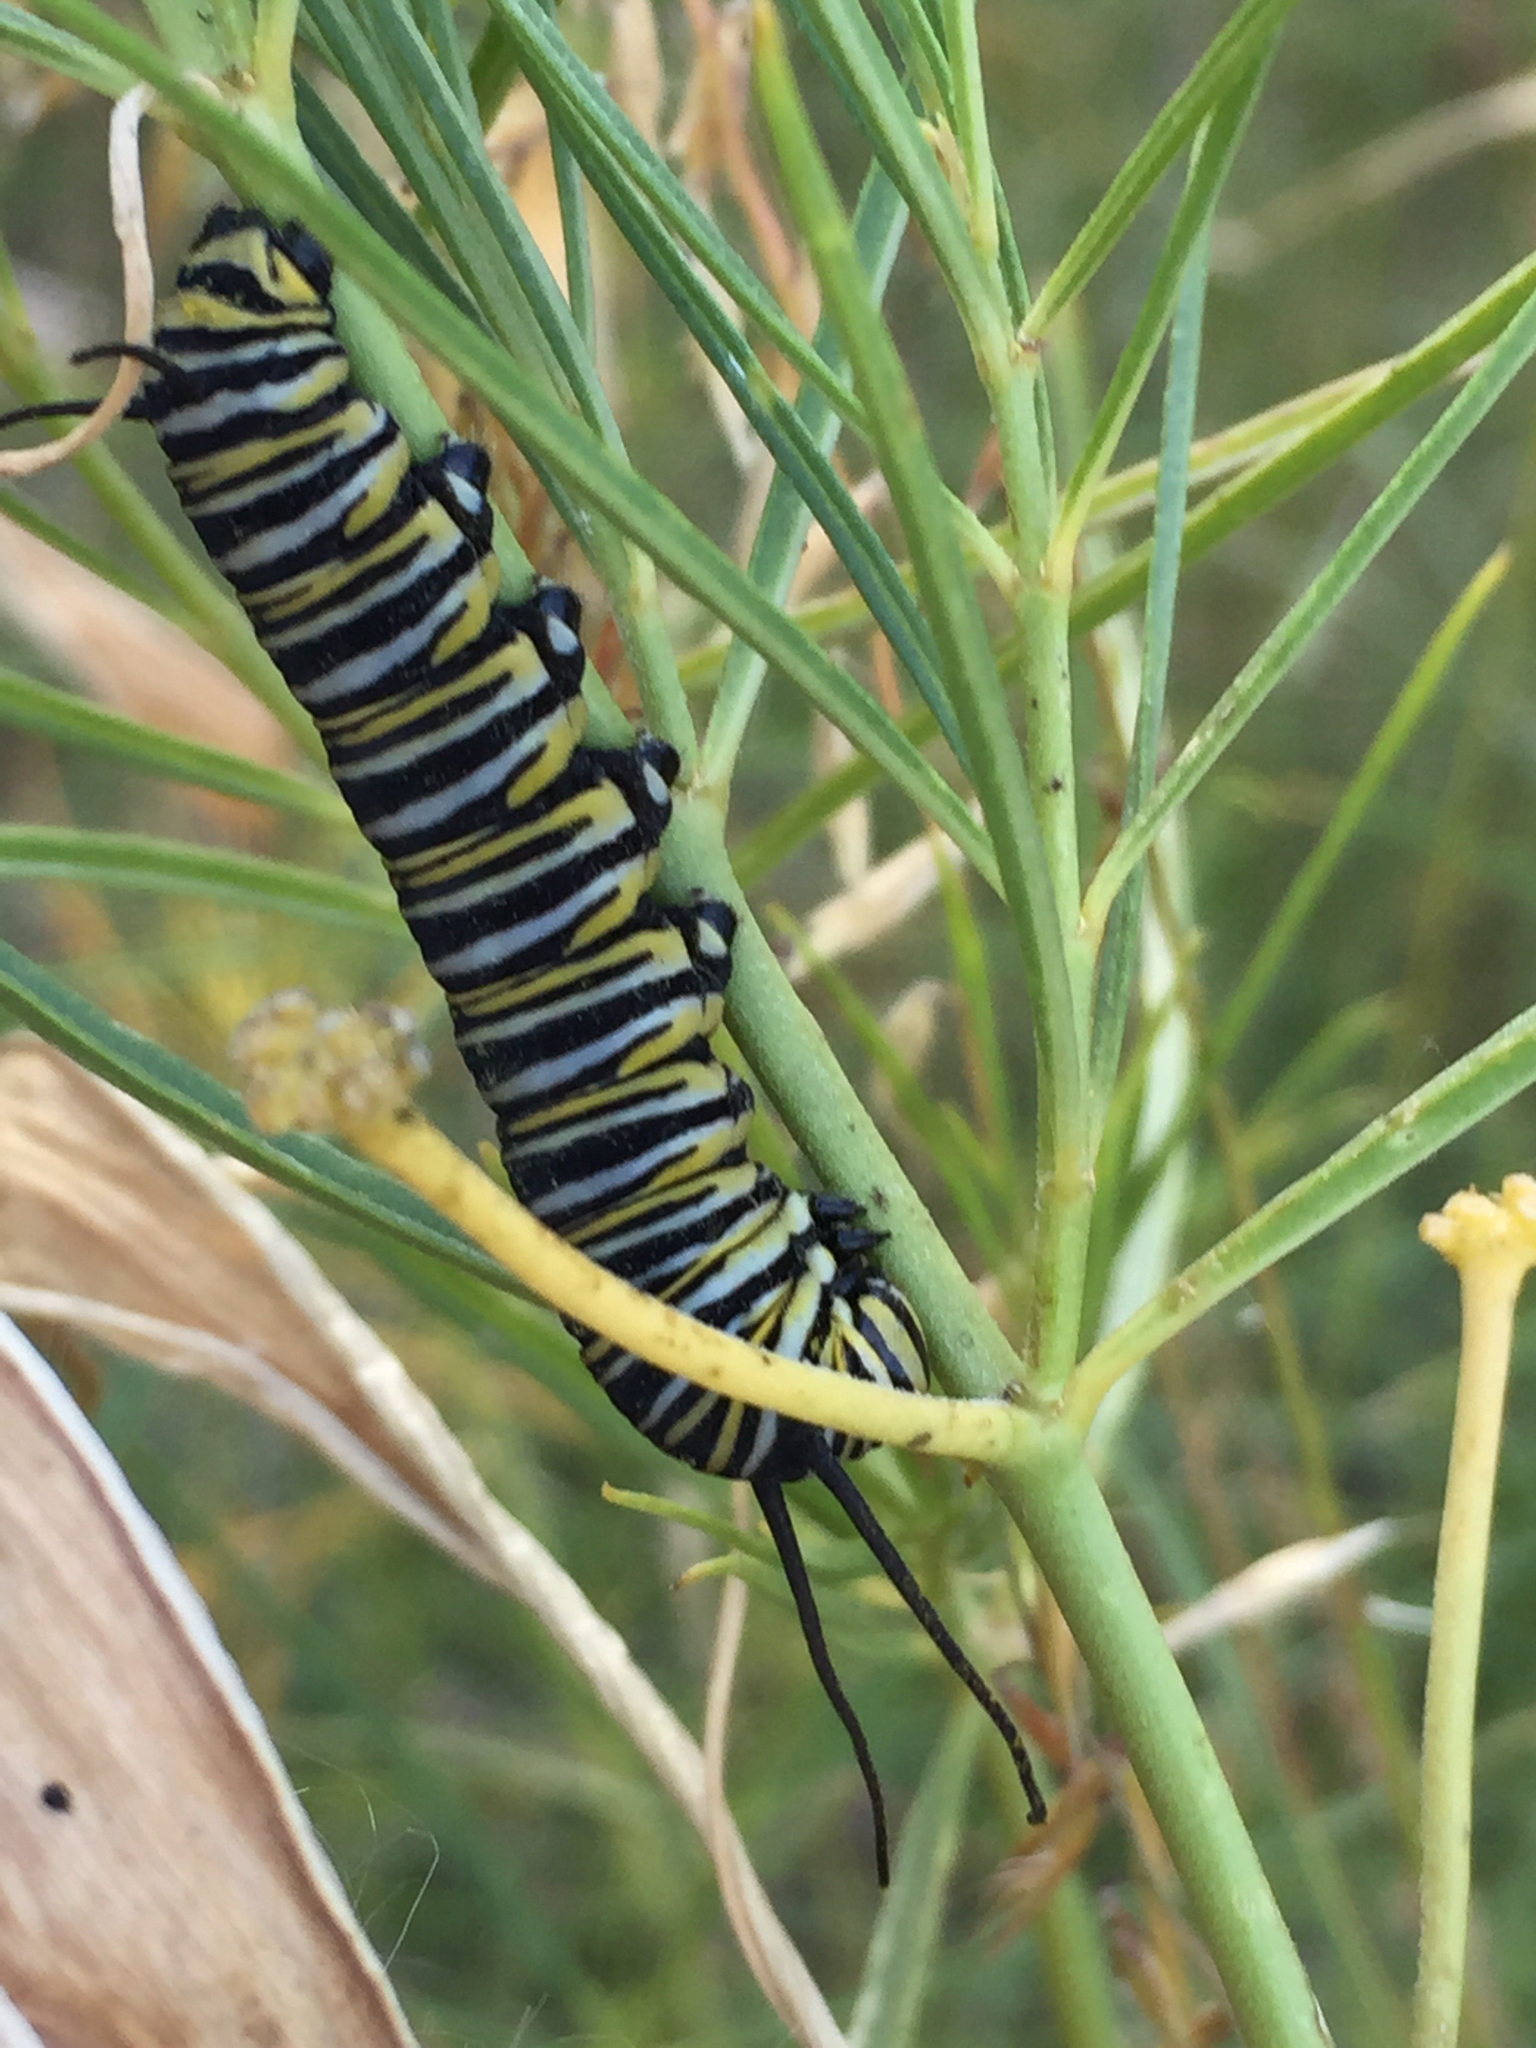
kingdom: Animalia
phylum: Arthropoda
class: Insecta
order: Lepidoptera
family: Nymphalidae
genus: Danaus
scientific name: Danaus plexippus
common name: Monarch
